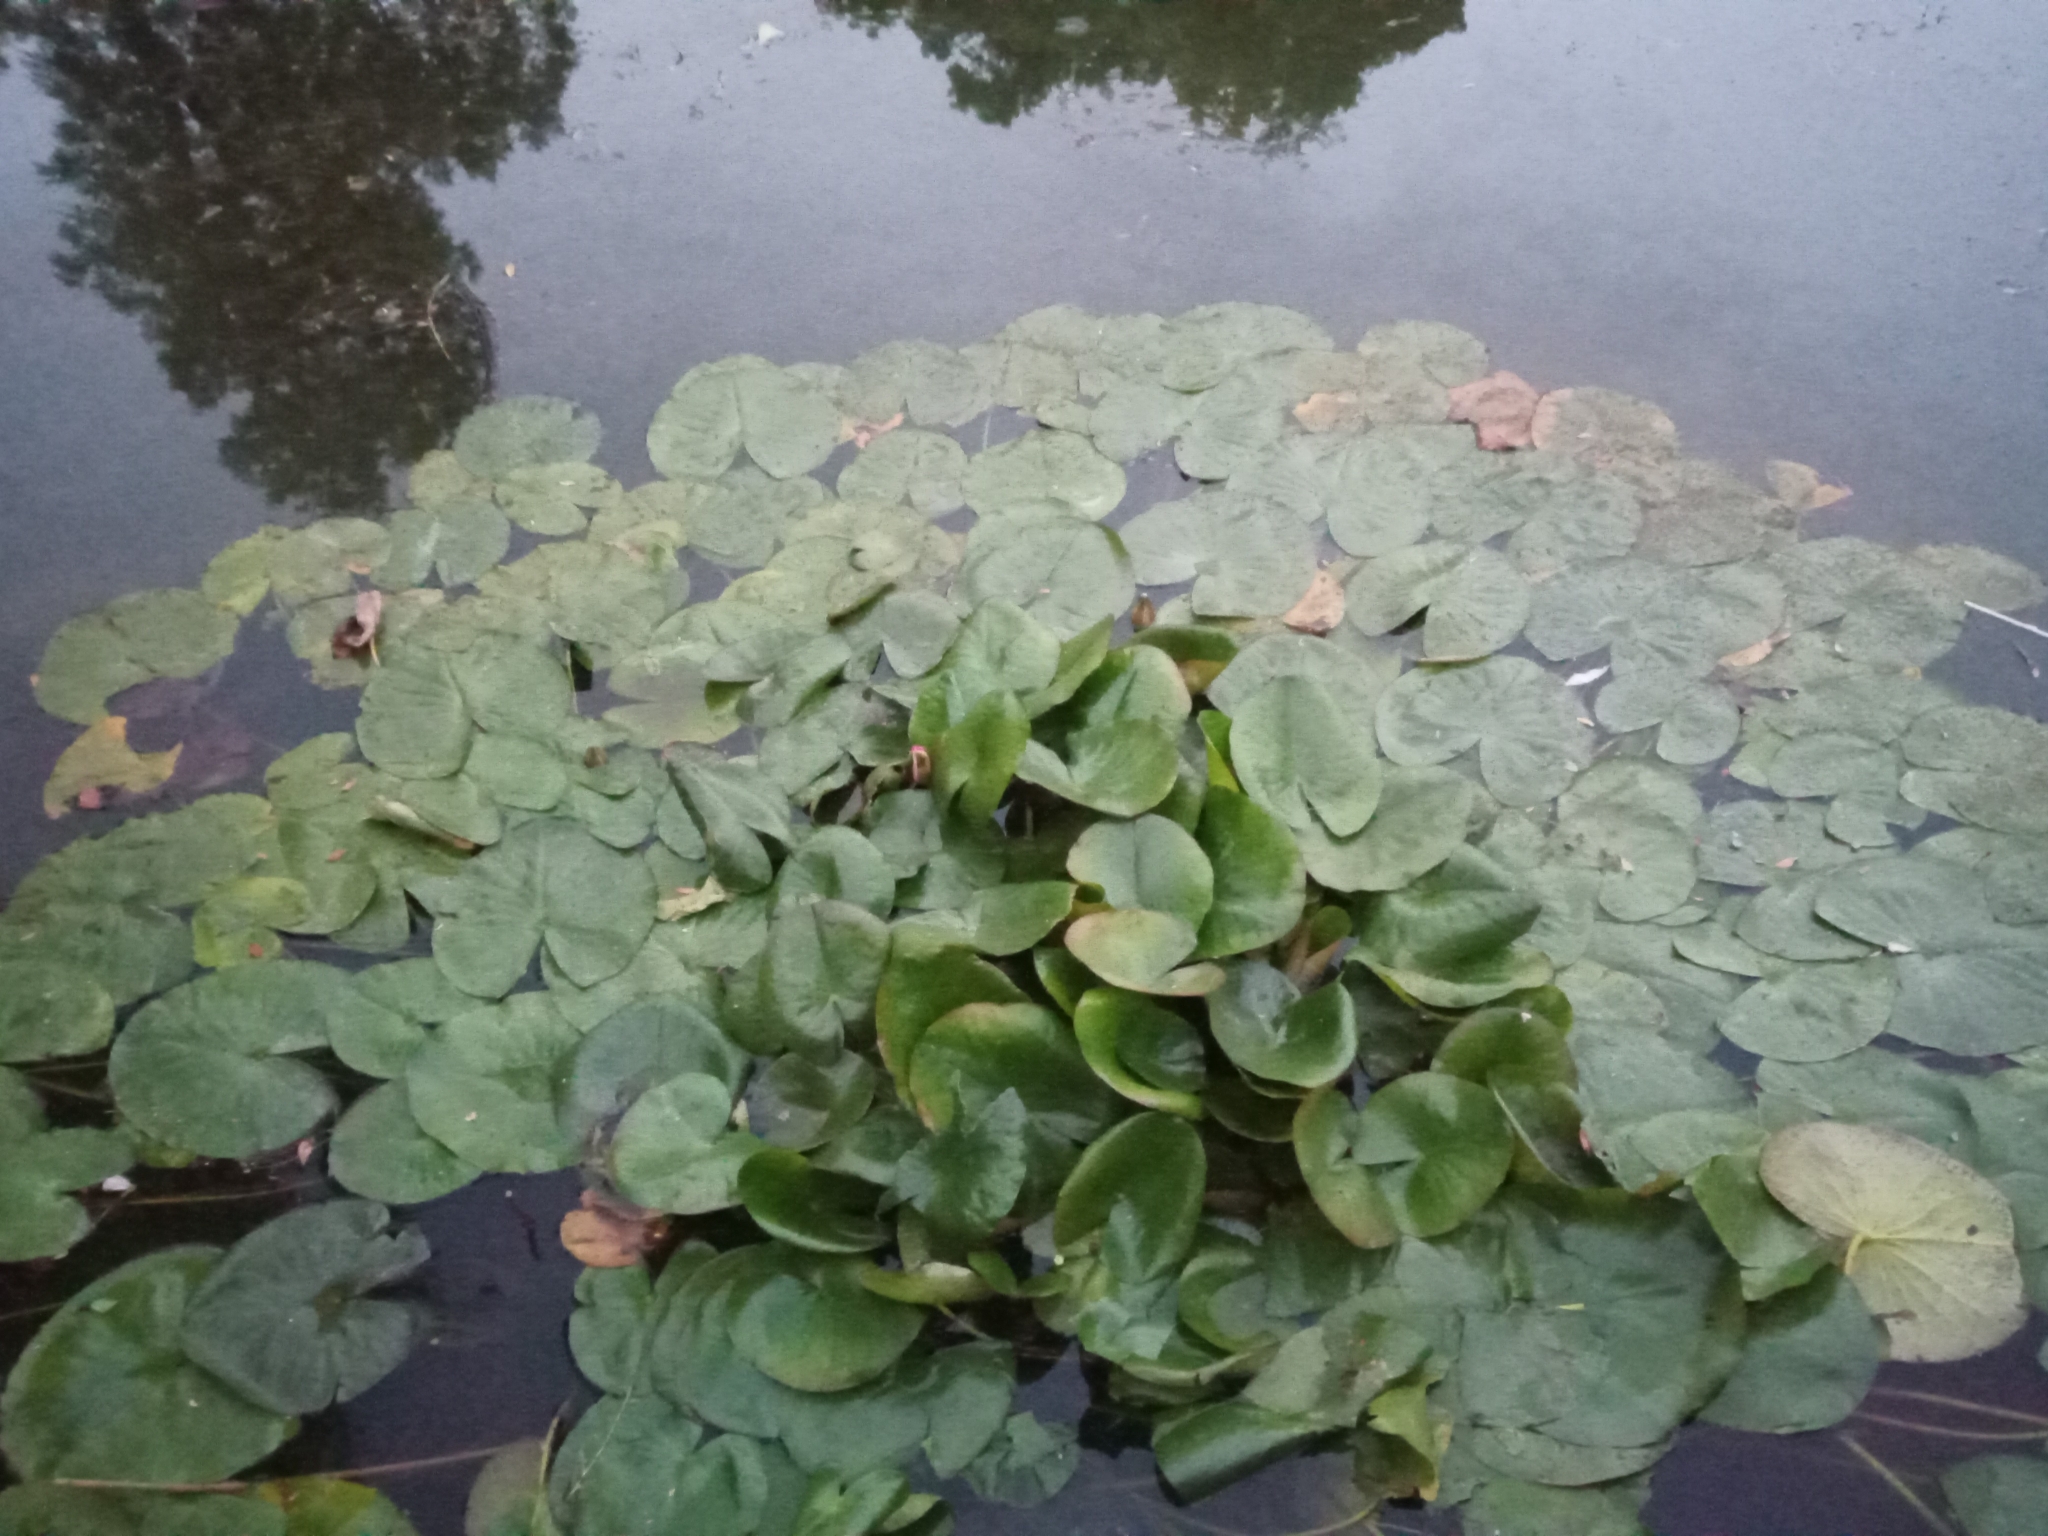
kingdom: Plantae
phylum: Tracheophyta
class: Magnoliopsida
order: Nymphaeales
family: Nymphaeaceae
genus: Nymphaea
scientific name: Nymphaea marliacea
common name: Water-lily
